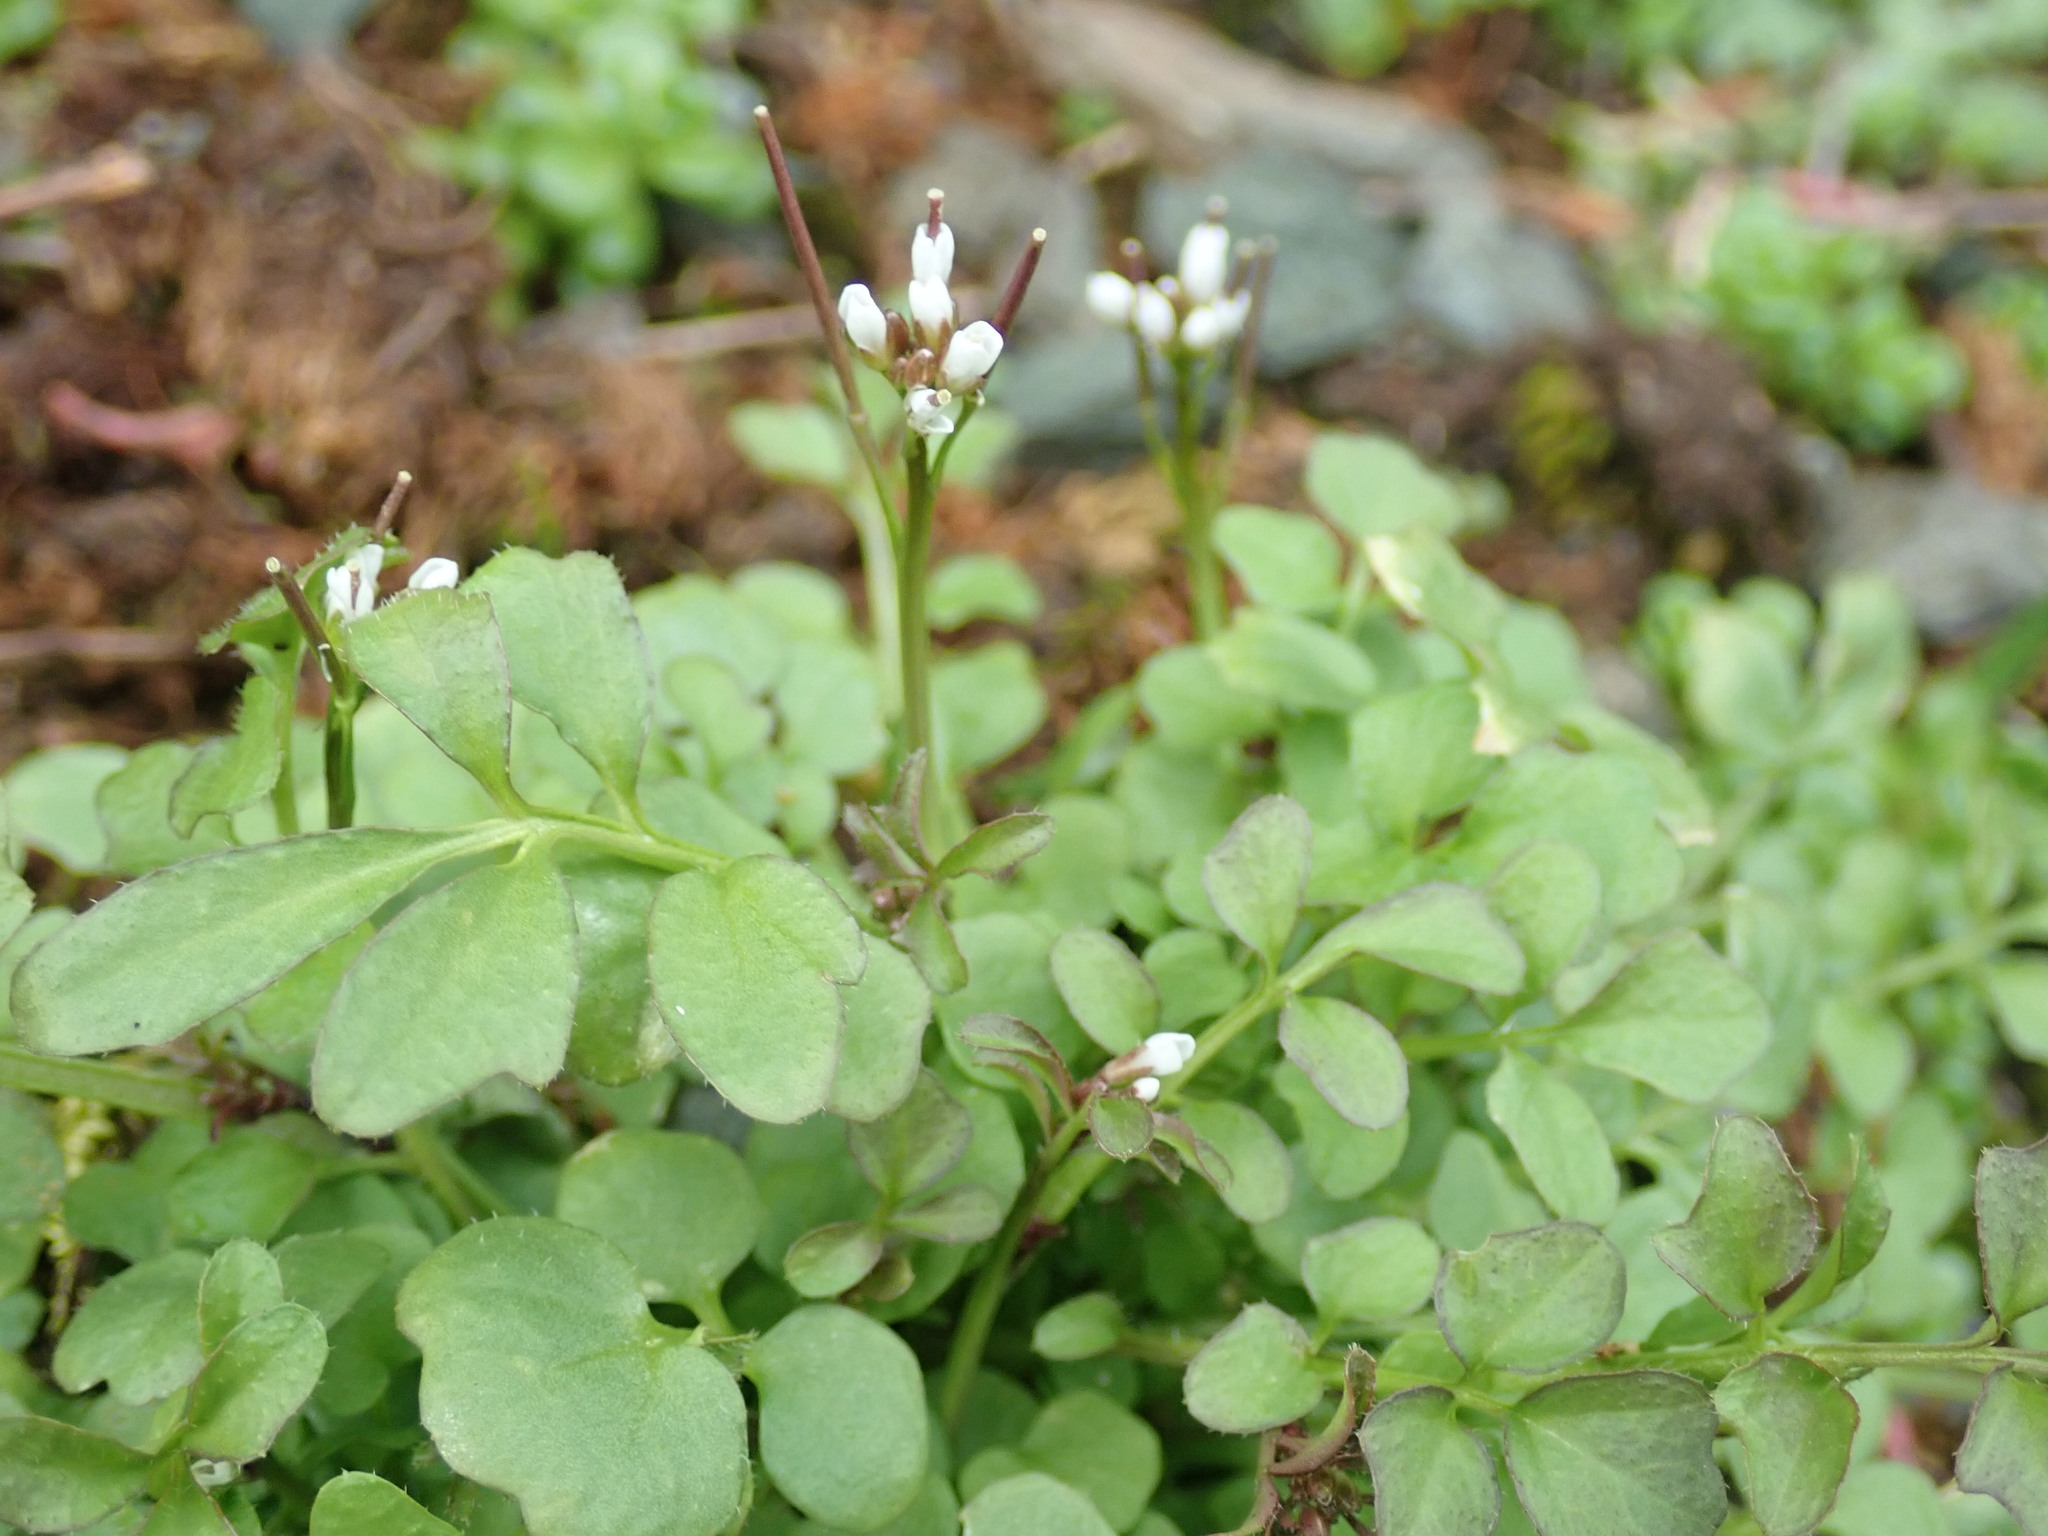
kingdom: Plantae
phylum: Tracheophyta
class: Magnoliopsida
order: Brassicales
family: Brassicaceae
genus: Cardamine
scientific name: Cardamine hirsuta
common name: Hairy bittercress
